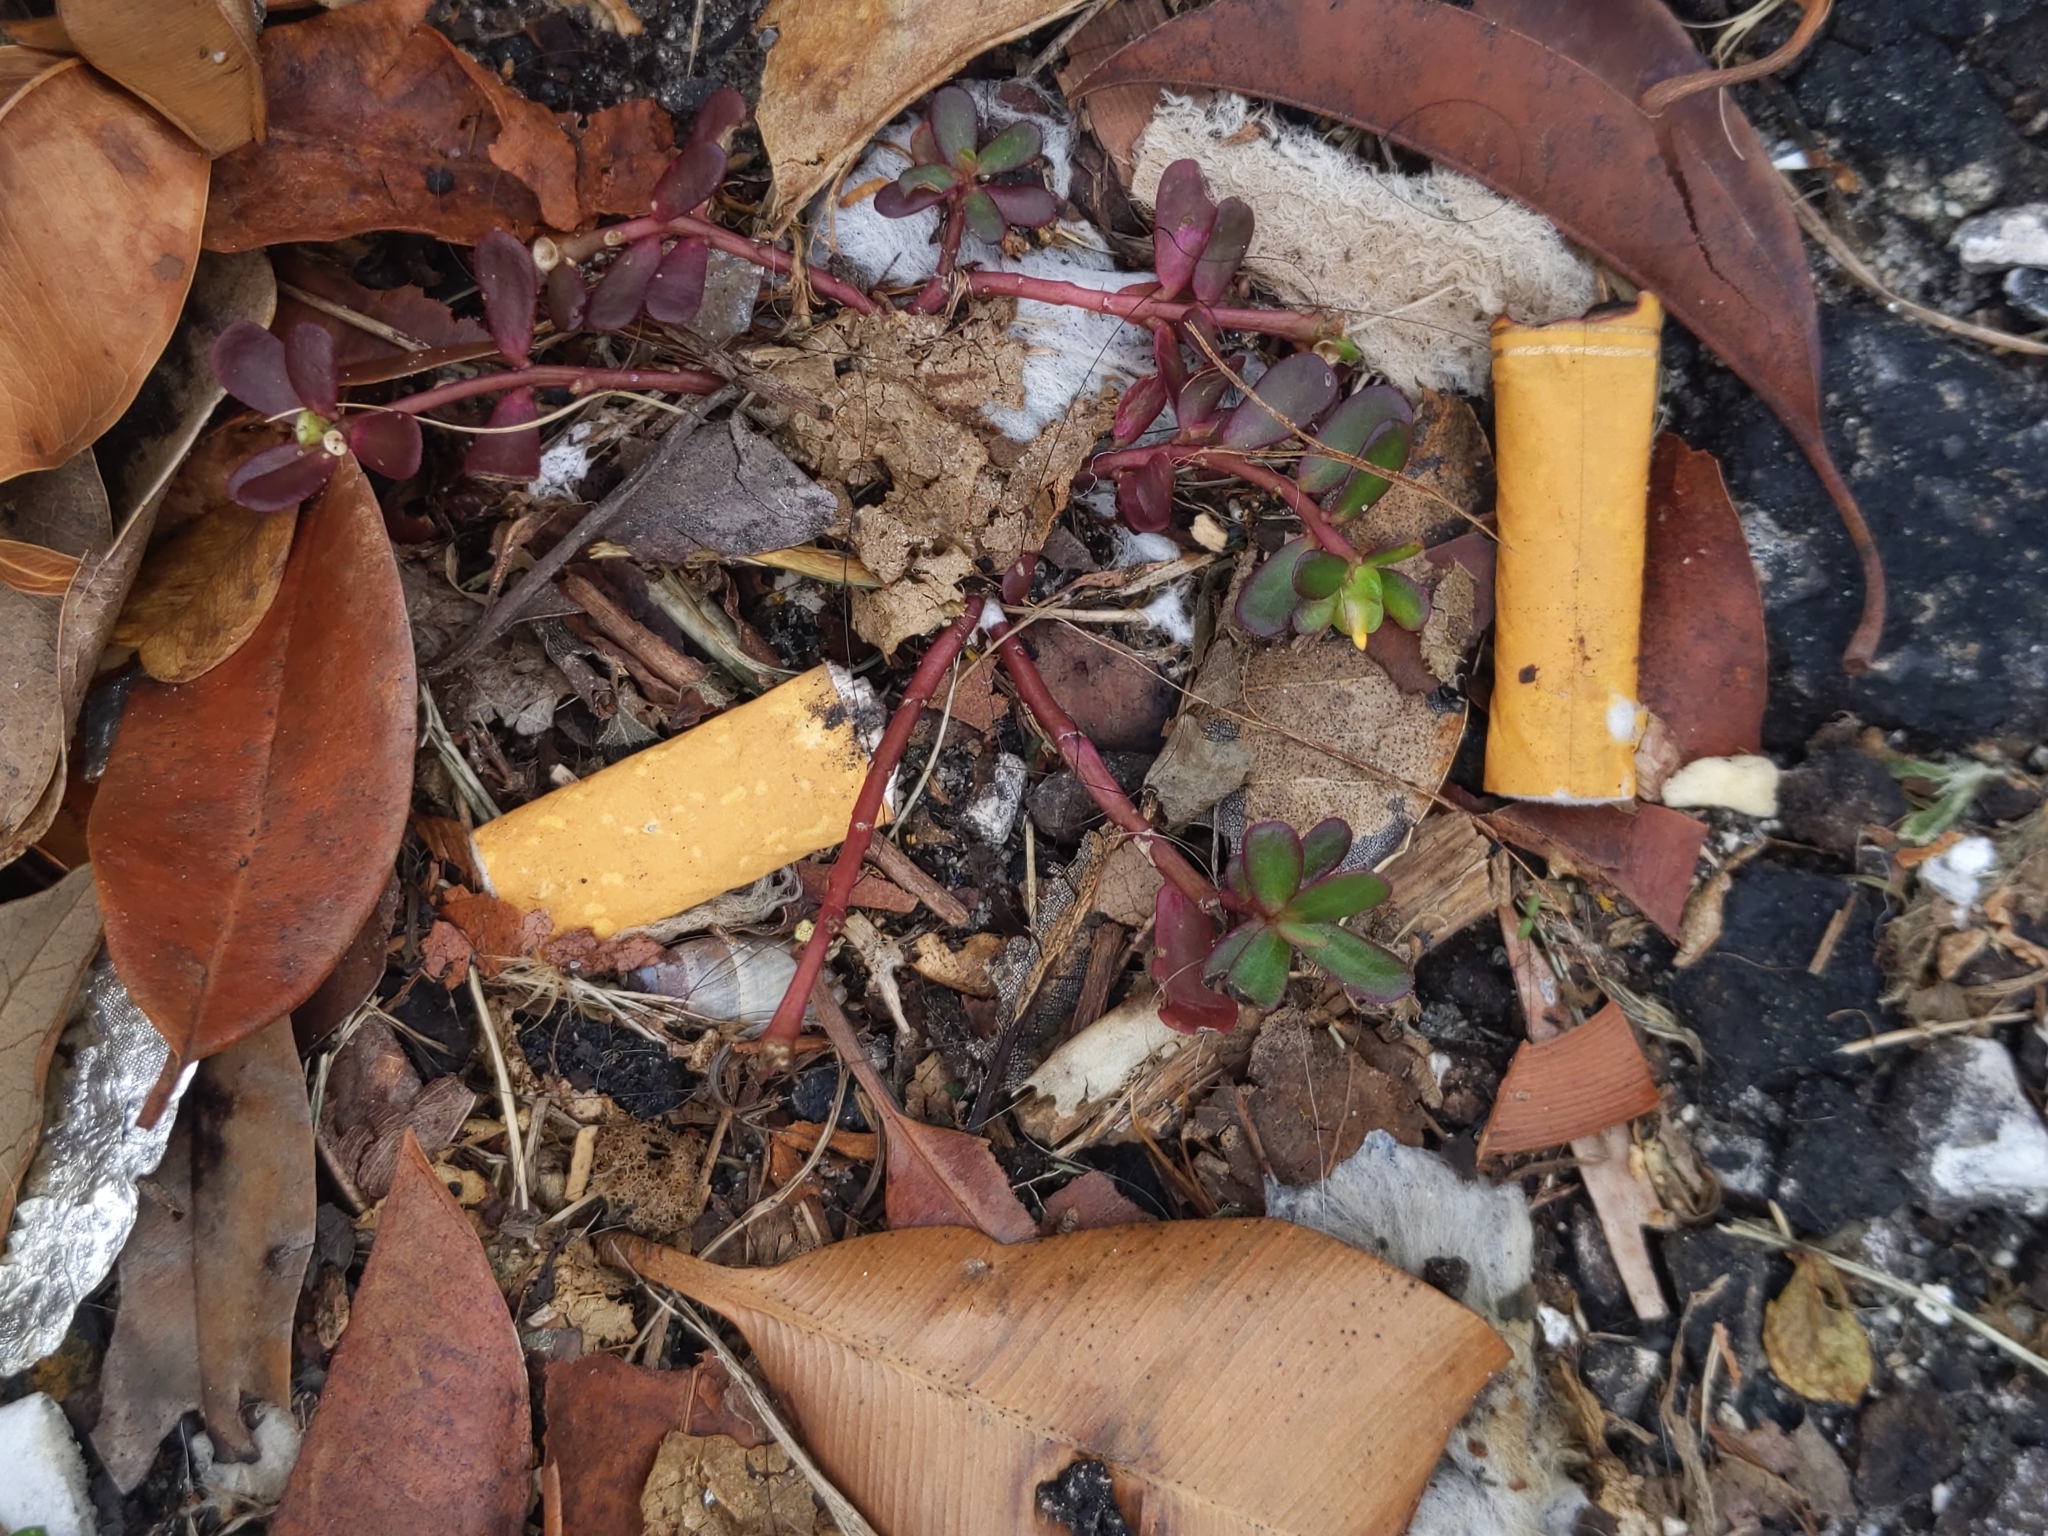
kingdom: Plantae
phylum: Tracheophyta
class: Magnoliopsida
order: Caryophyllales
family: Portulacaceae
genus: Portulaca
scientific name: Portulaca oleracea
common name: Common purslane
